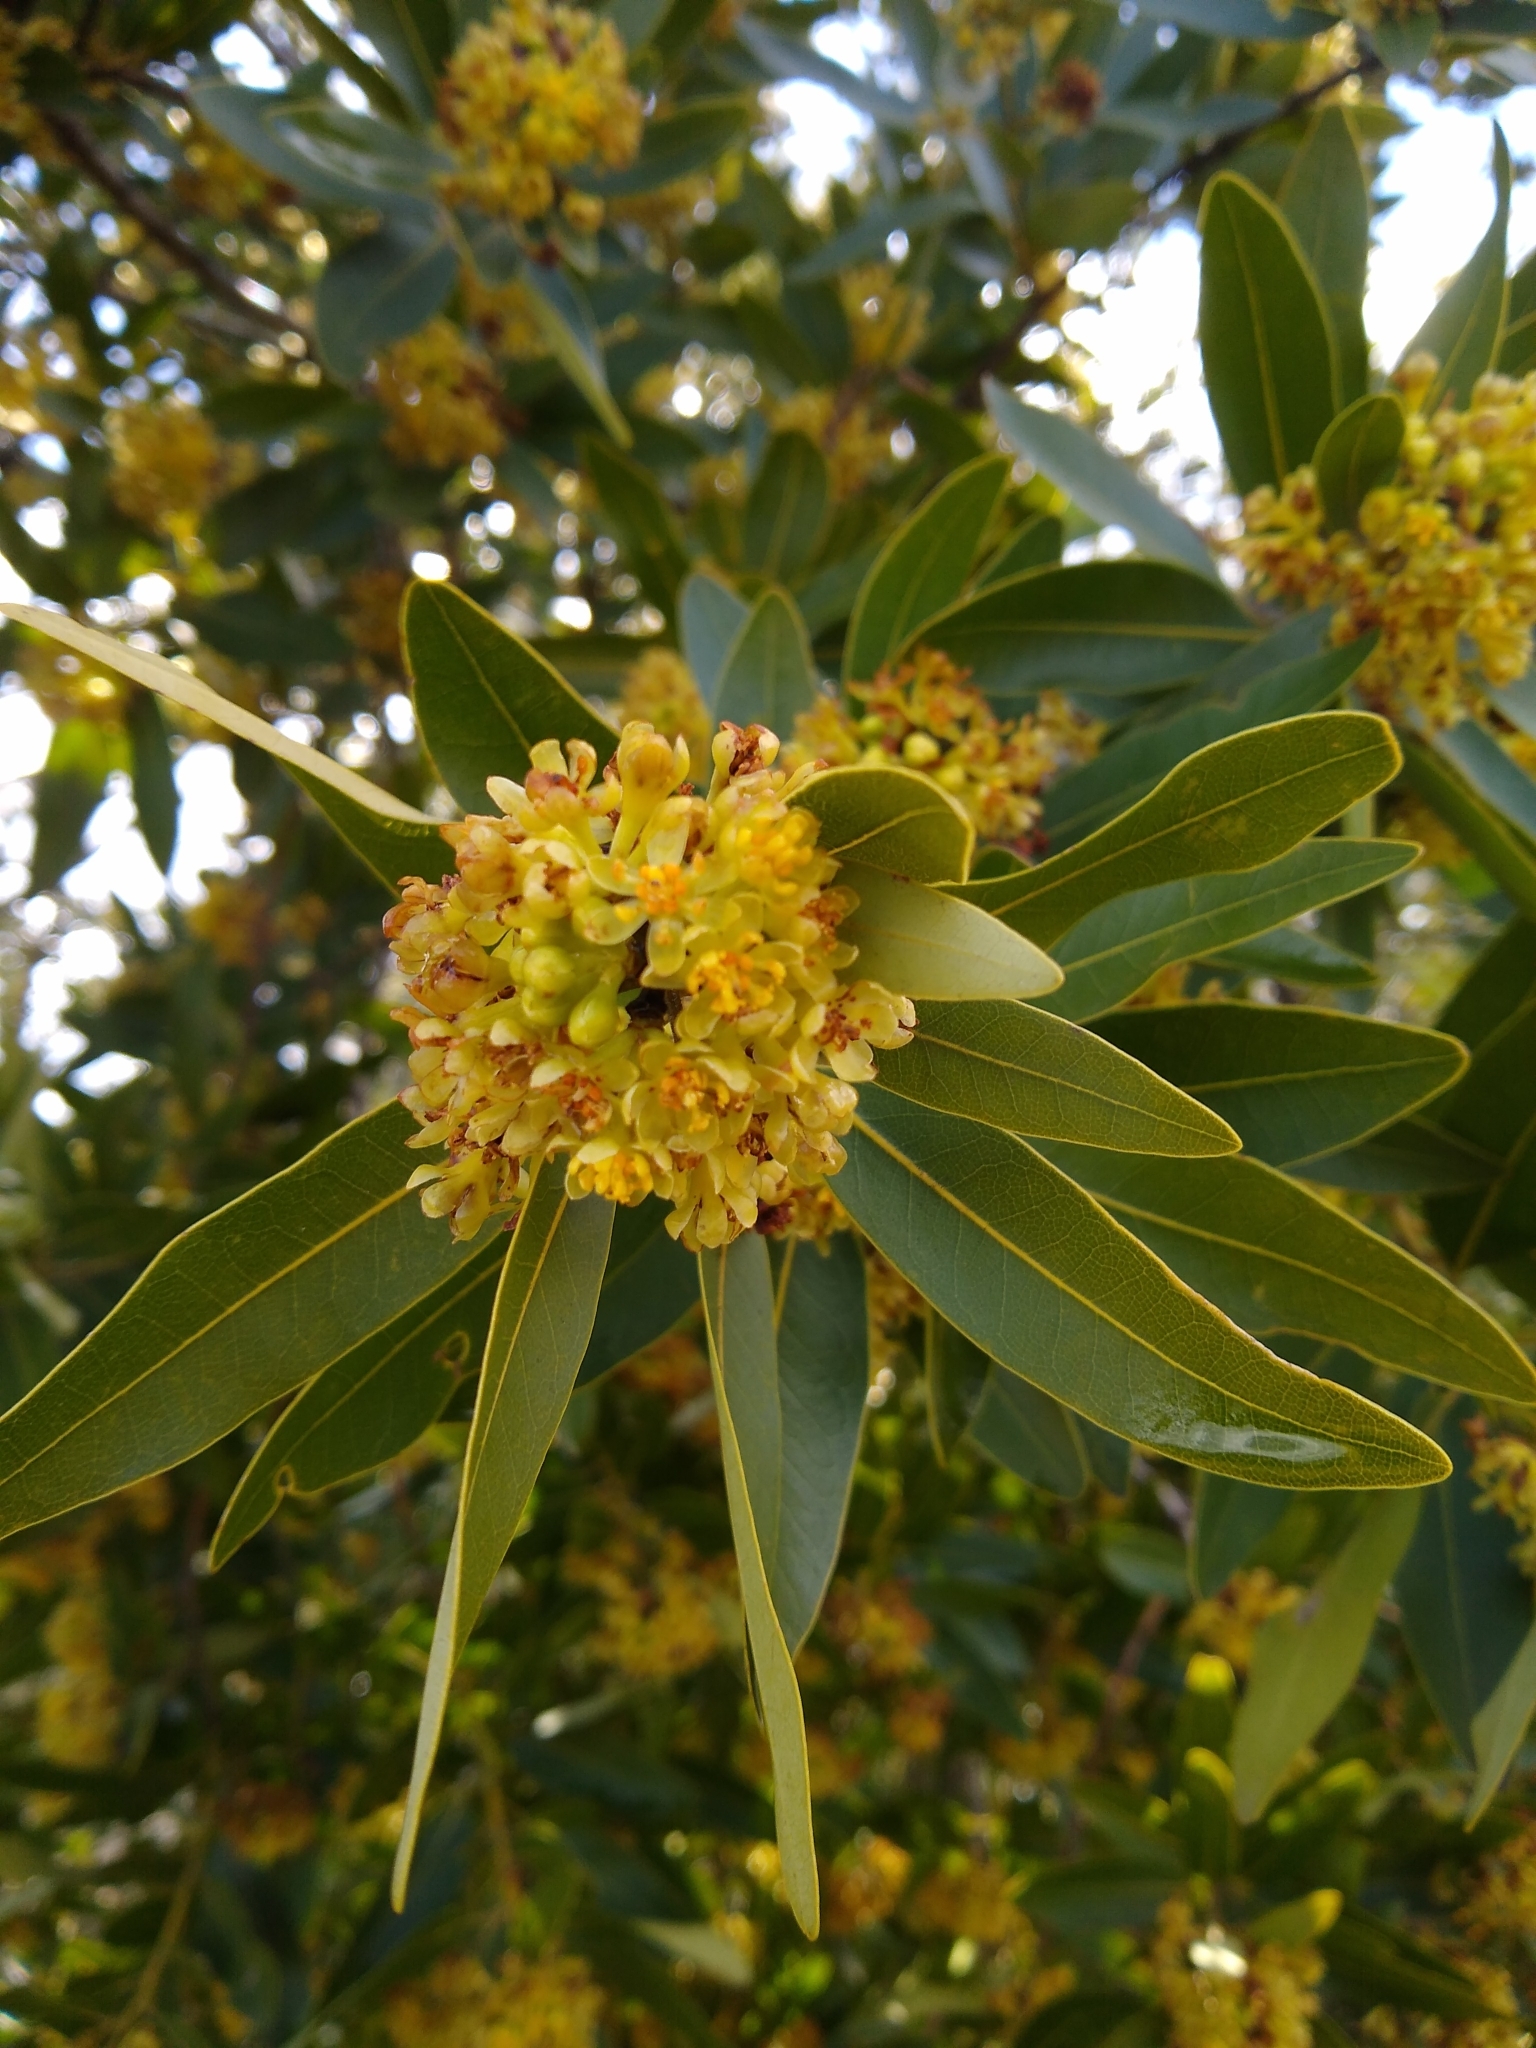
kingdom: Plantae
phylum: Tracheophyta
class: Magnoliopsida
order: Laurales
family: Lauraceae
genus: Umbellularia
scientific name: Umbellularia californica
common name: California bay
